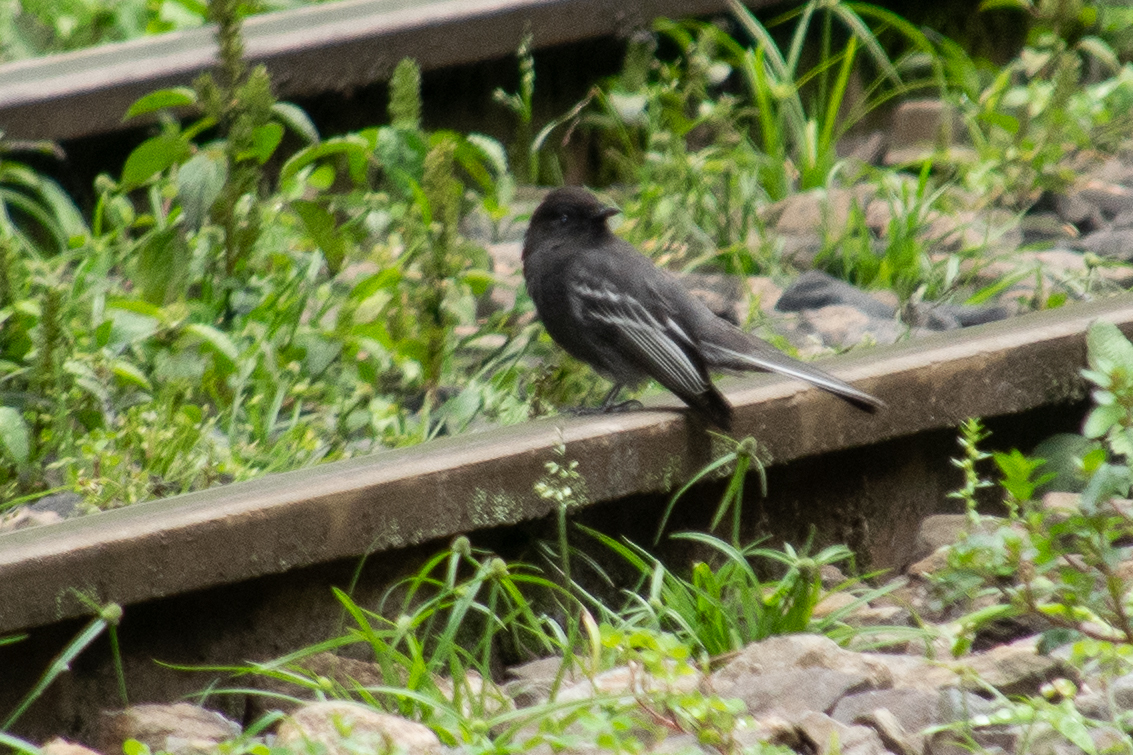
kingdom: Animalia
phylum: Chordata
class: Aves
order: Passeriformes
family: Tyrannidae
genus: Sayornis
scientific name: Sayornis nigricans
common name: Black phoebe
